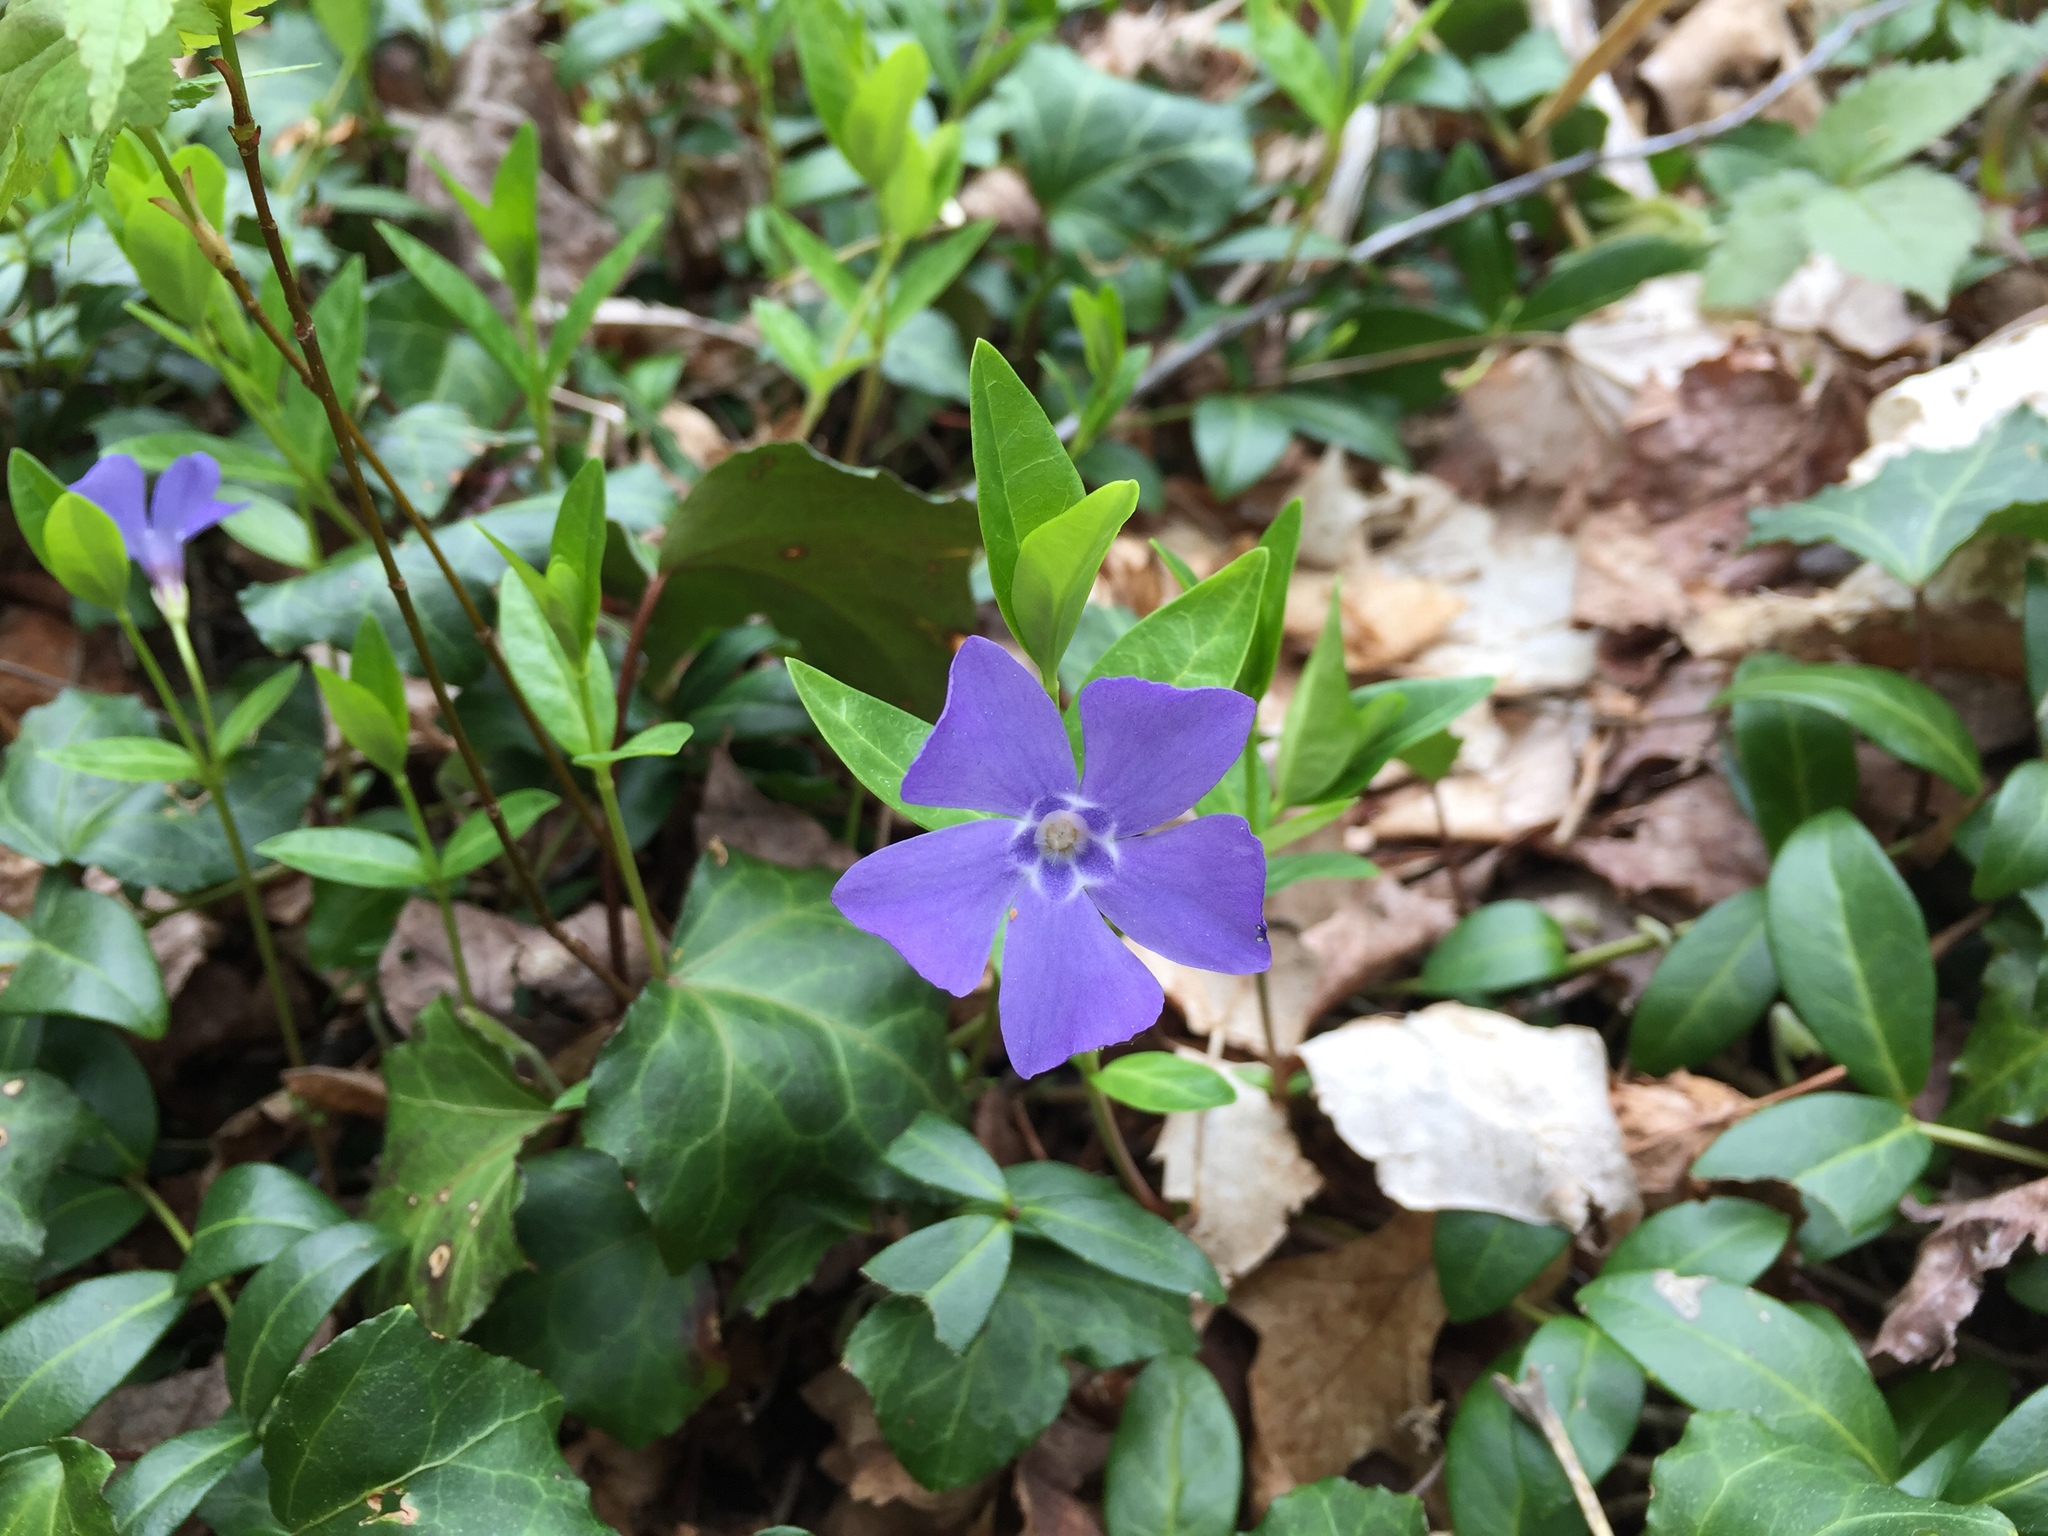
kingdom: Plantae
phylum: Tracheophyta
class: Magnoliopsida
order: Gentianales
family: Apocynaceae
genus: Vinca
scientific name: Vinca minor
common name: Lesser periwinkle
